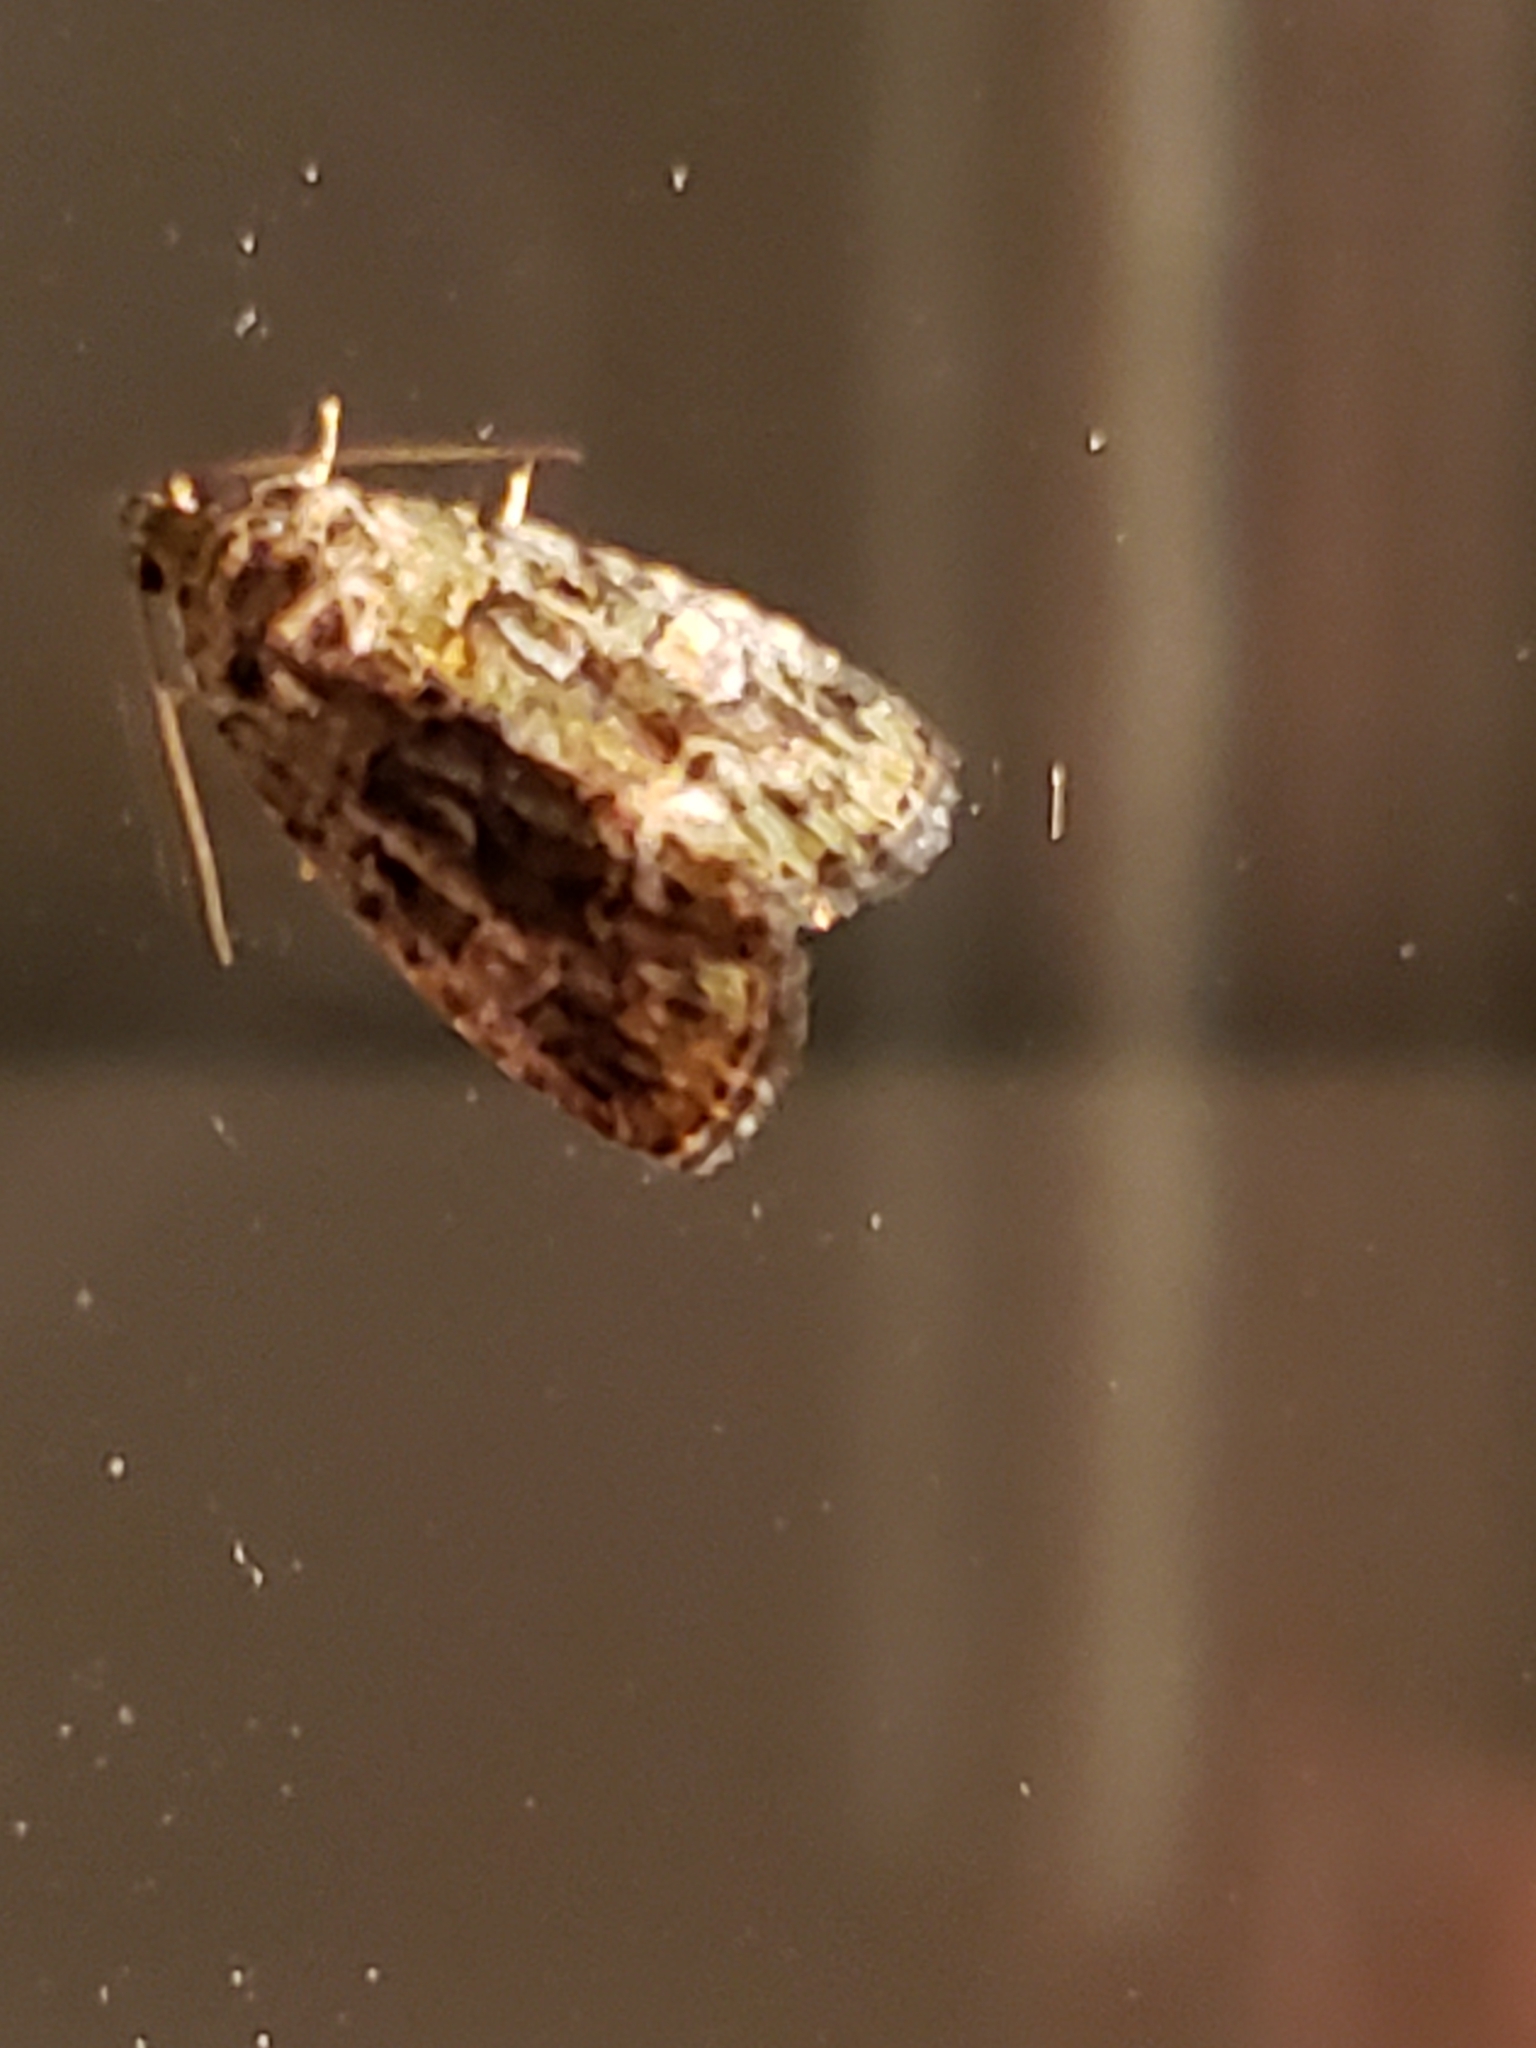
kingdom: Animalia
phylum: Arthropoda
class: Insecta
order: Lepidoptera
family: Noctuidae
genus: Lithacodia
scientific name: Lithacodia musta
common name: Small mossy glyph
